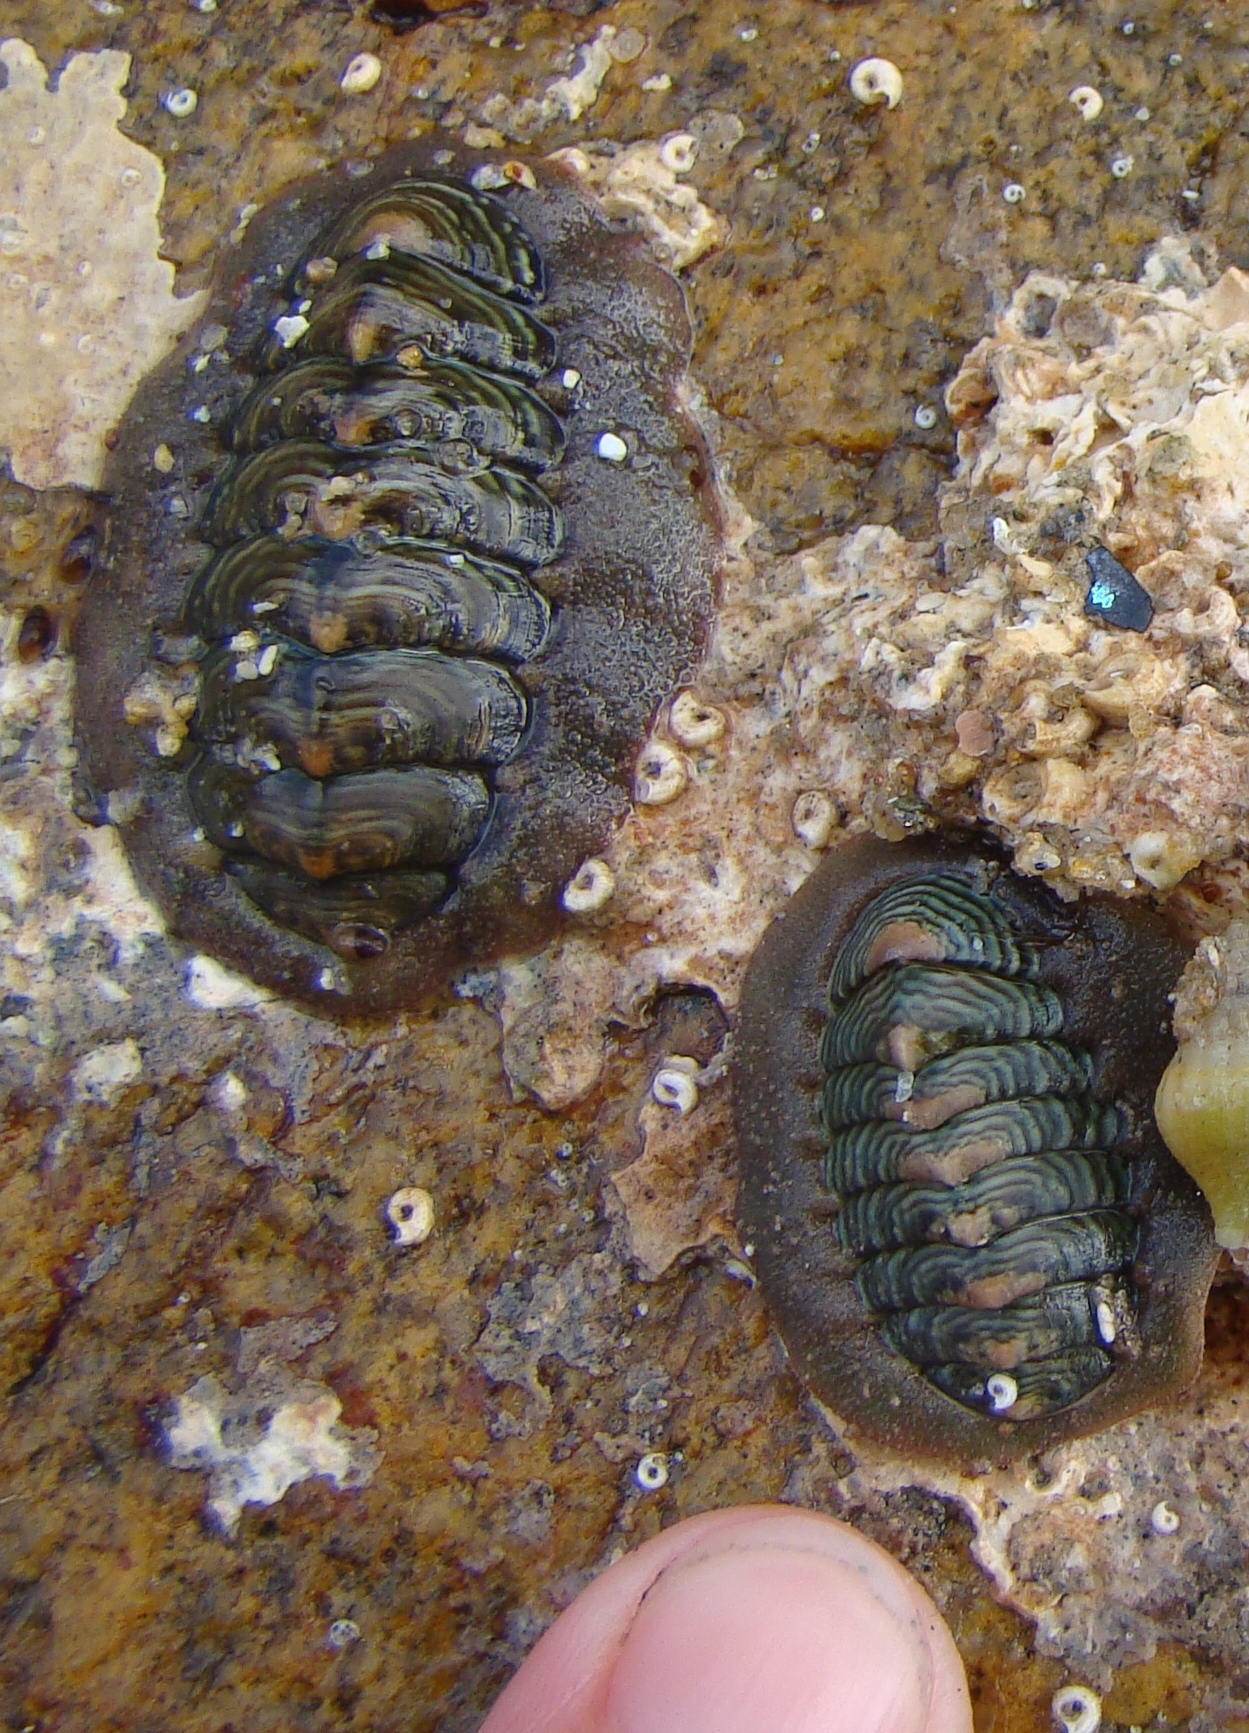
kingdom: Animalia
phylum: Mollusca
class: Polyplacophora
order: Chitonida
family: Chitonidae
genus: Onithochiton
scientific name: Onithochiton neglectus
